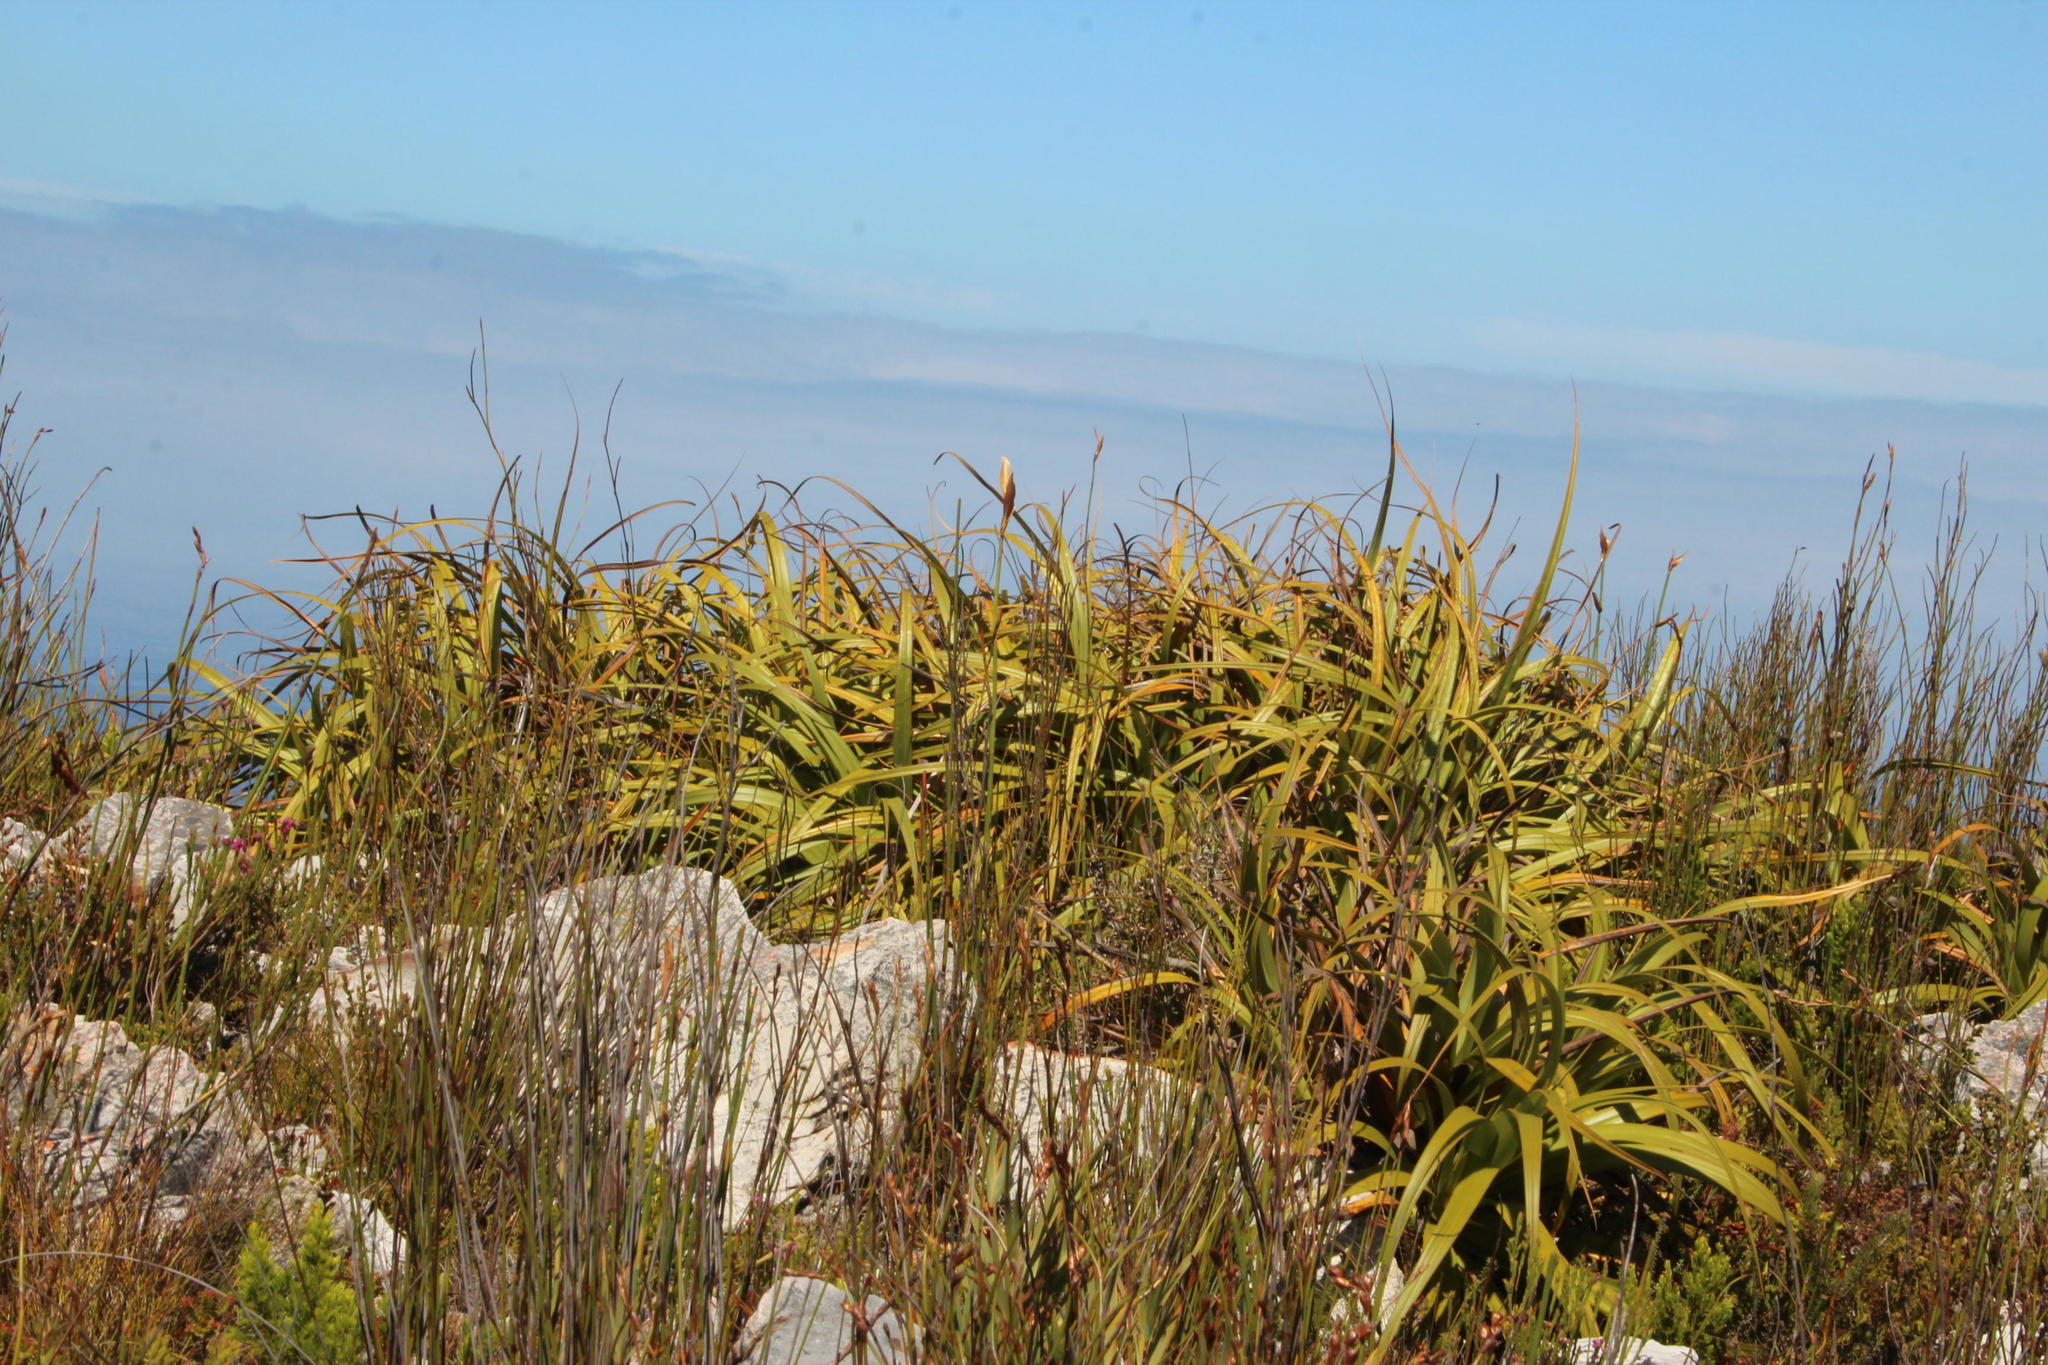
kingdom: Plantae
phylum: Tracheophyta
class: Liliopsida
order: Poales
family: Cyperaceae
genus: Tetraria
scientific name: Tetraria thermalis
